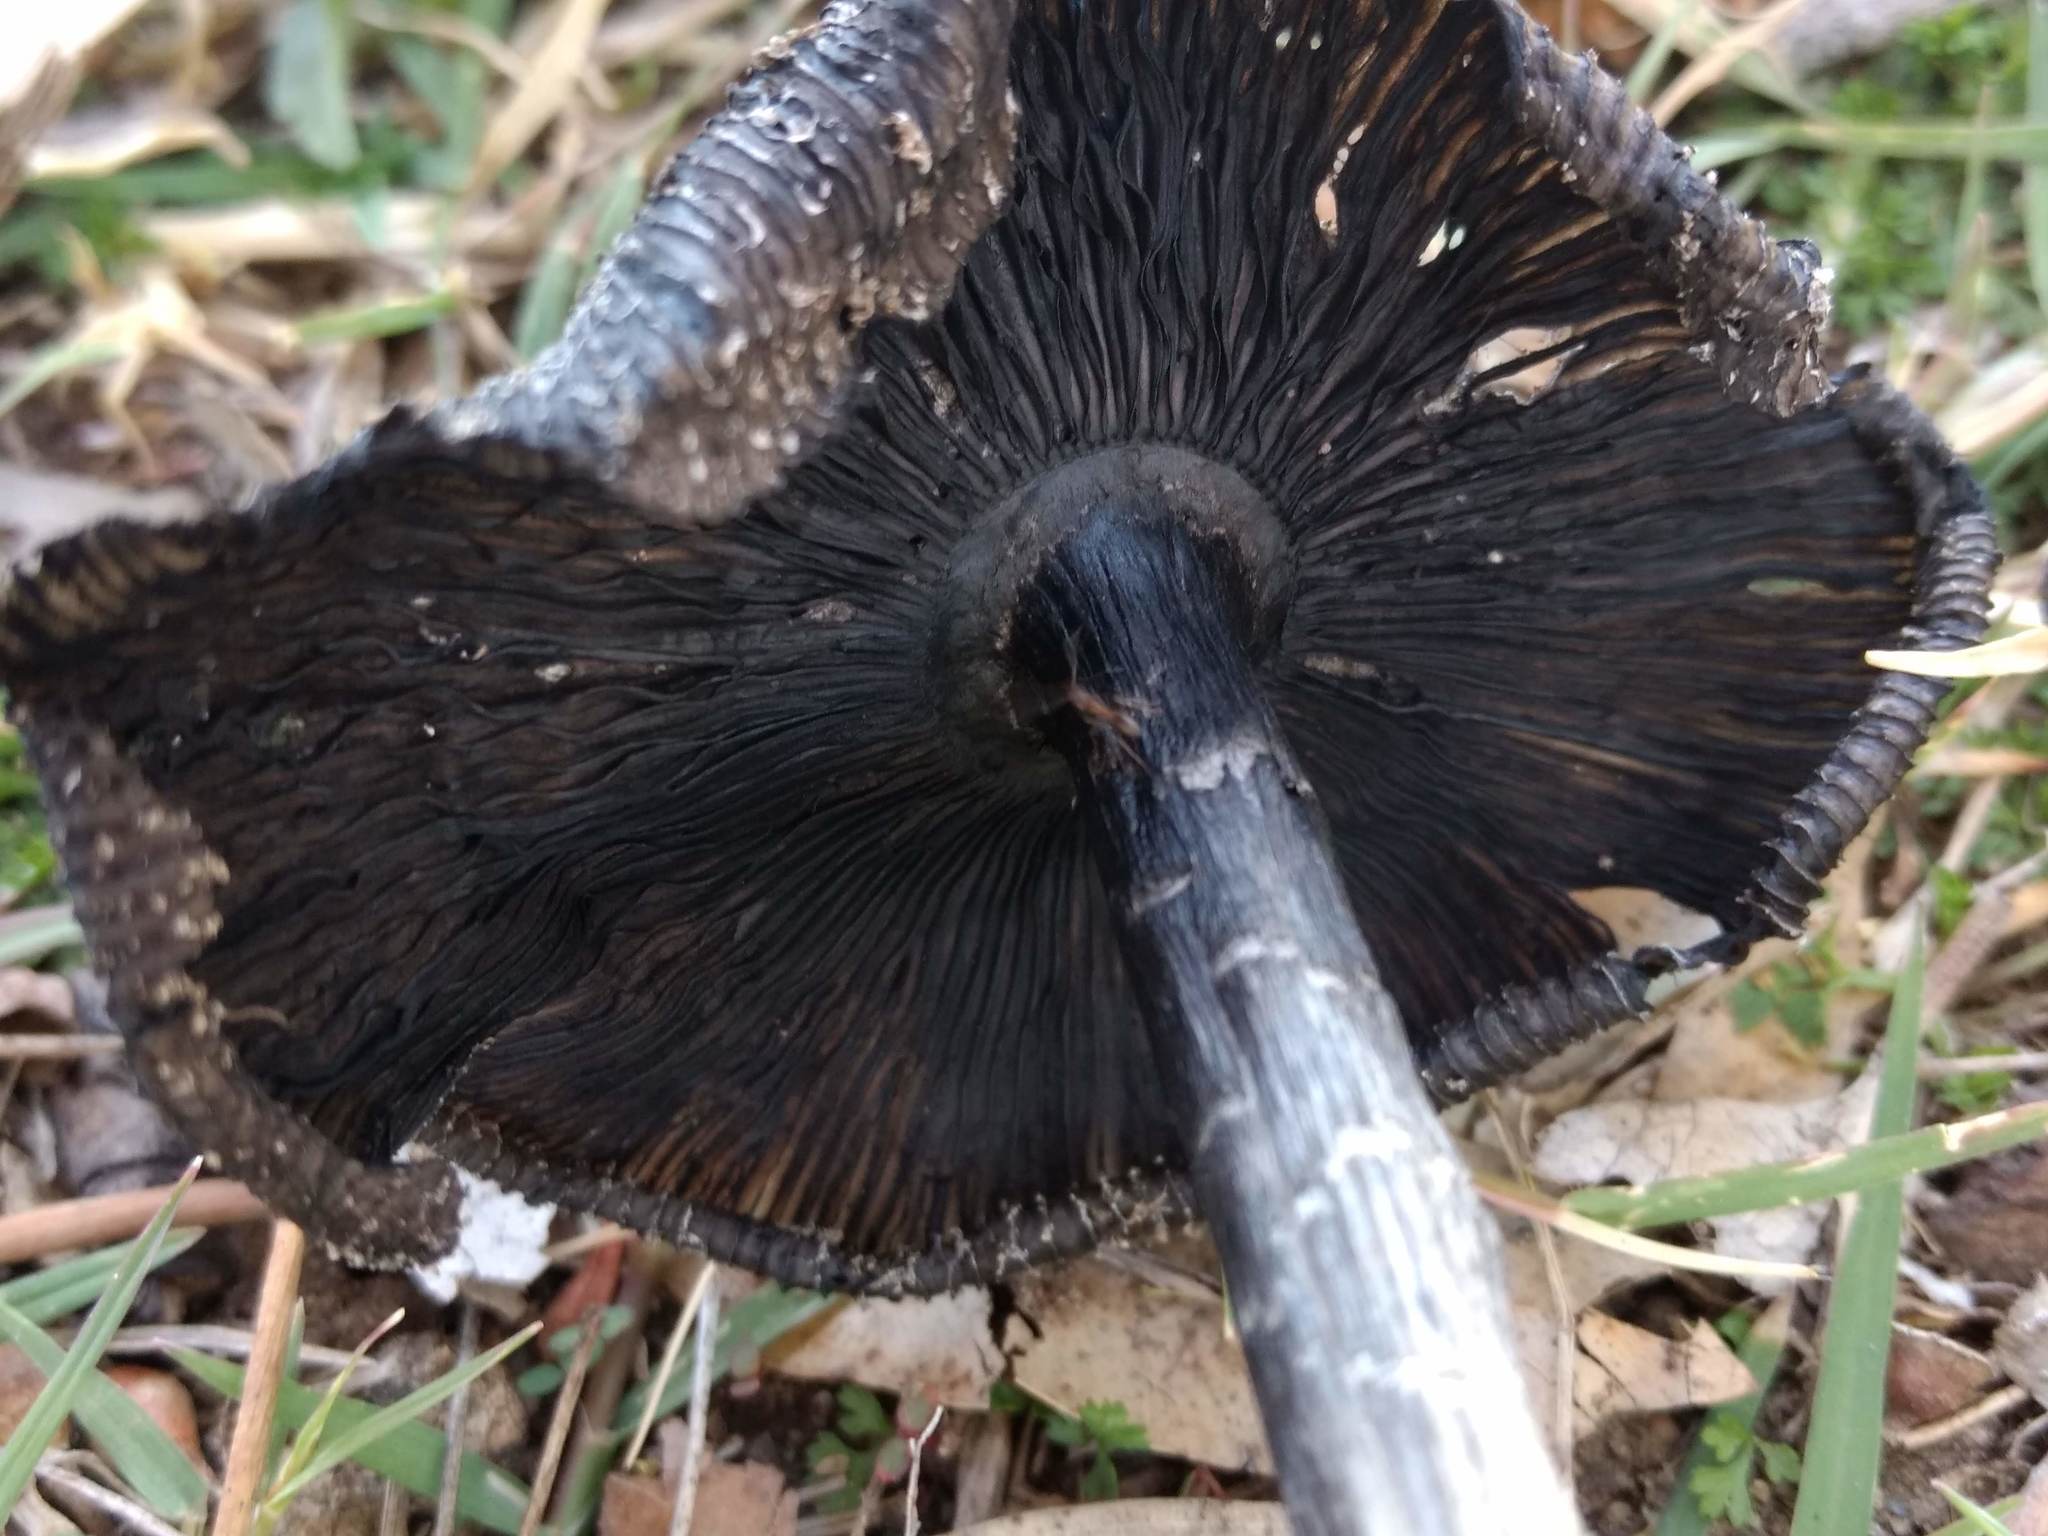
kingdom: Fungi
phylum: Basidiomycota
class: Agaricomycetes
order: Agaricales
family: Agaricaceae
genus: Coprinus
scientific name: Coprinus calyptratus
